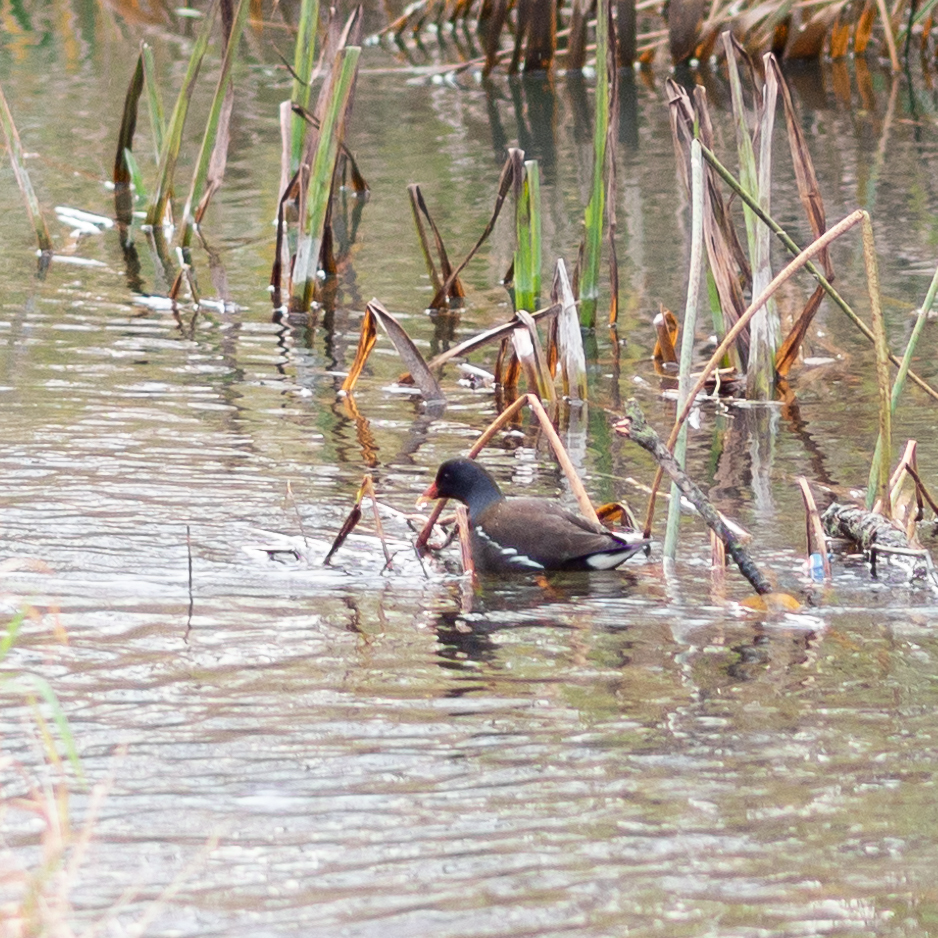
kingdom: Animalia
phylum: Chordata
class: Aves
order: Gruiformes
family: Rallidae
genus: Gallinula
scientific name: Gallinula chloropus
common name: Common moorhen
